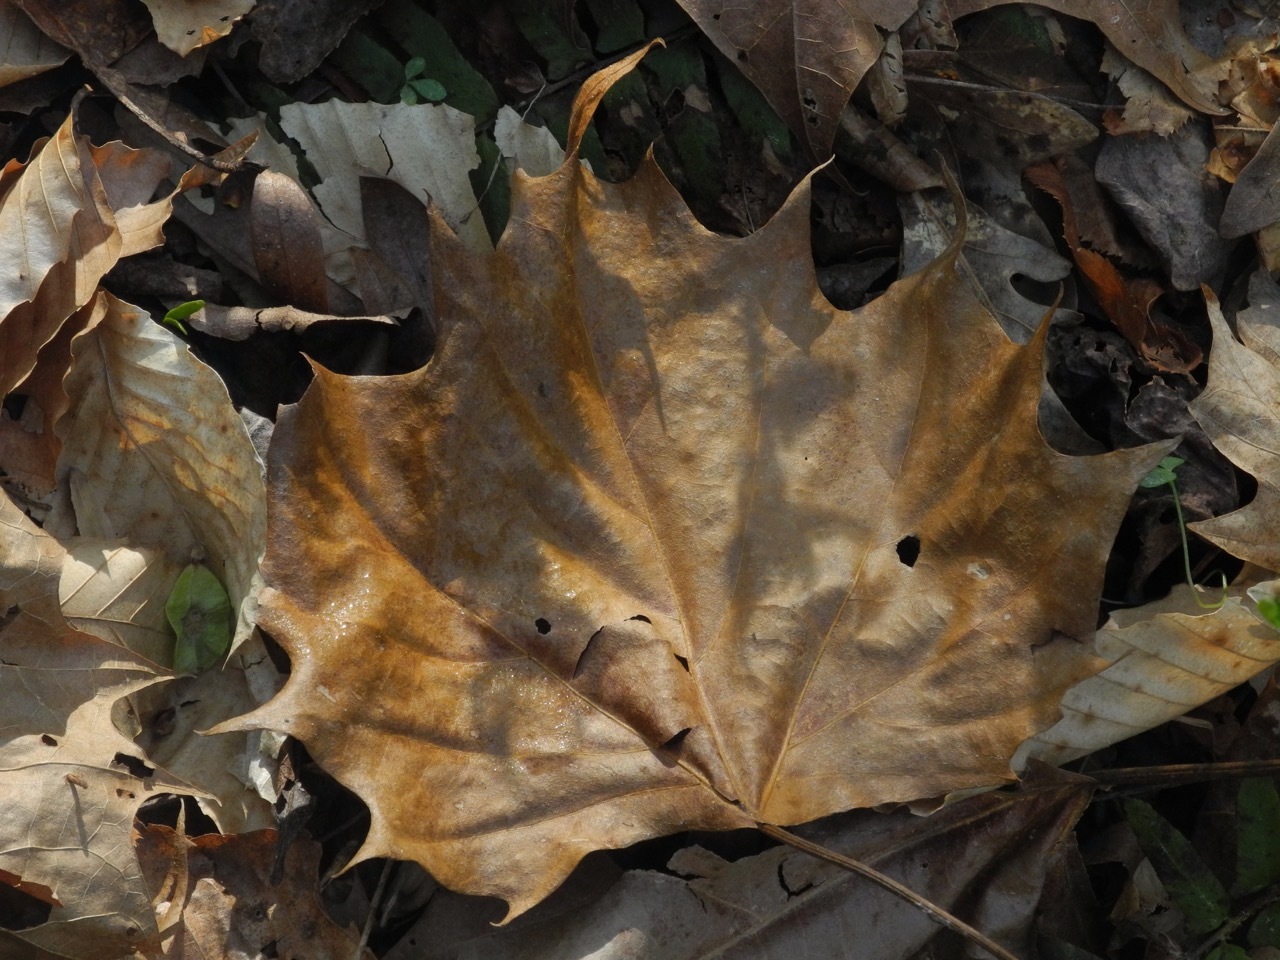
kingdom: Plantae
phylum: Tracheophyta
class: Magnoliopsida
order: Proteales
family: Platanaceae
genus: Platanus
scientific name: Platanus occidentalis
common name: American sycamore
